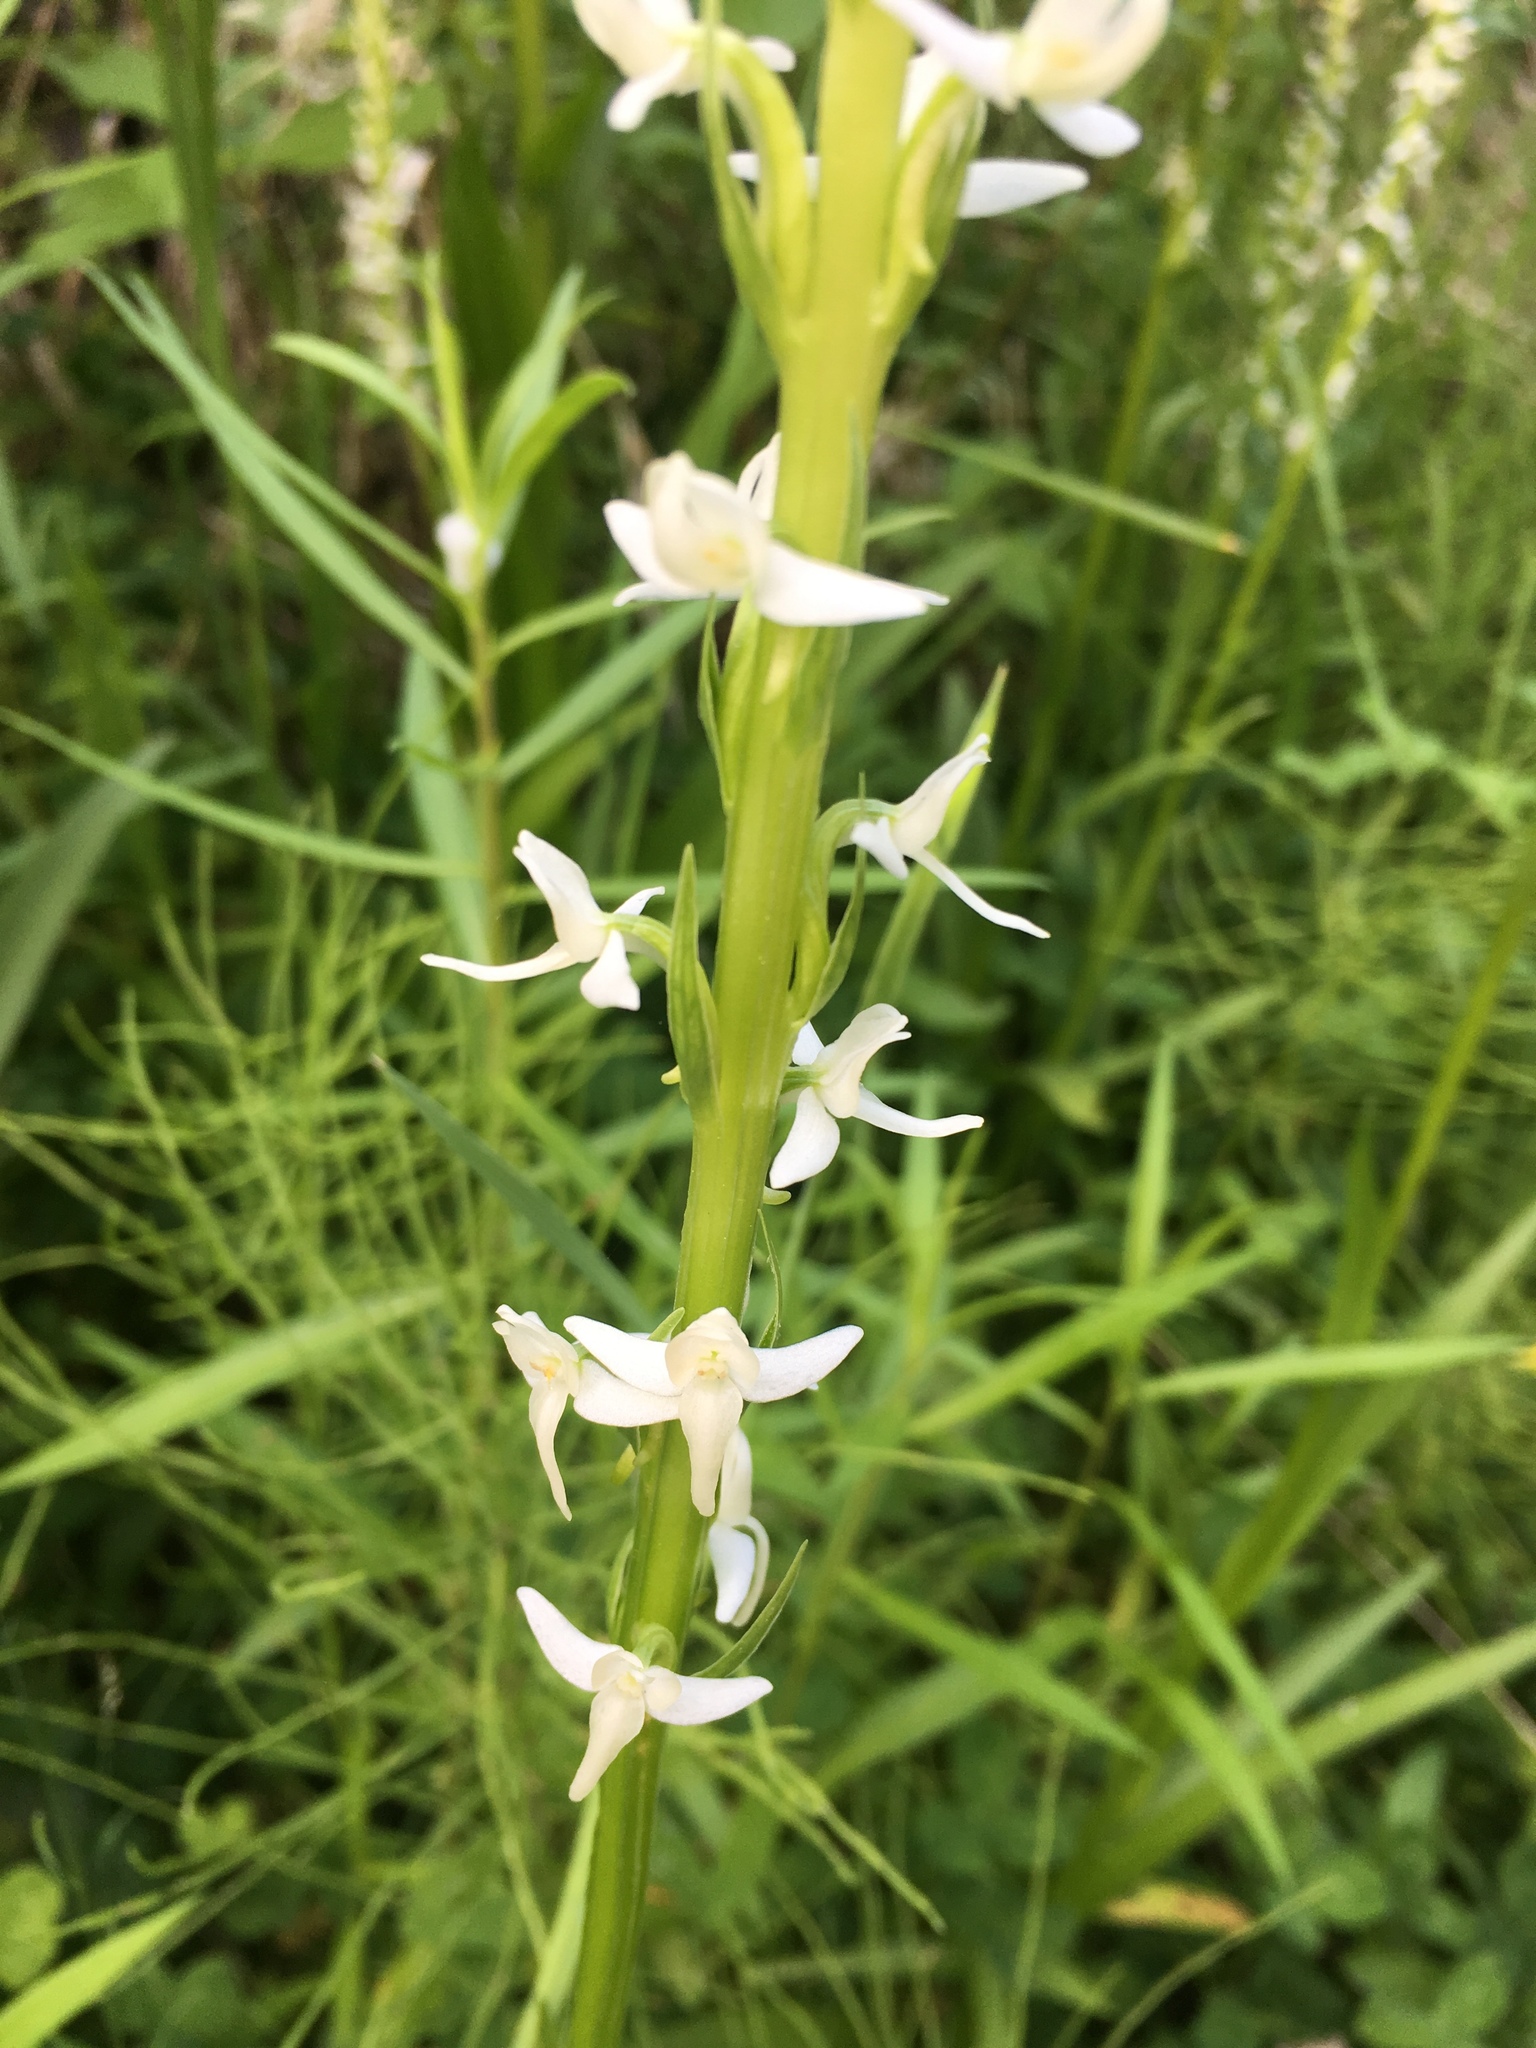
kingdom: Plantae
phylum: Tracheophyta
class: Liliopsida
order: Asparagales
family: Orchidaceae
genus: Platanthera
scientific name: Platanthera dilatata
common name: Bog candles
